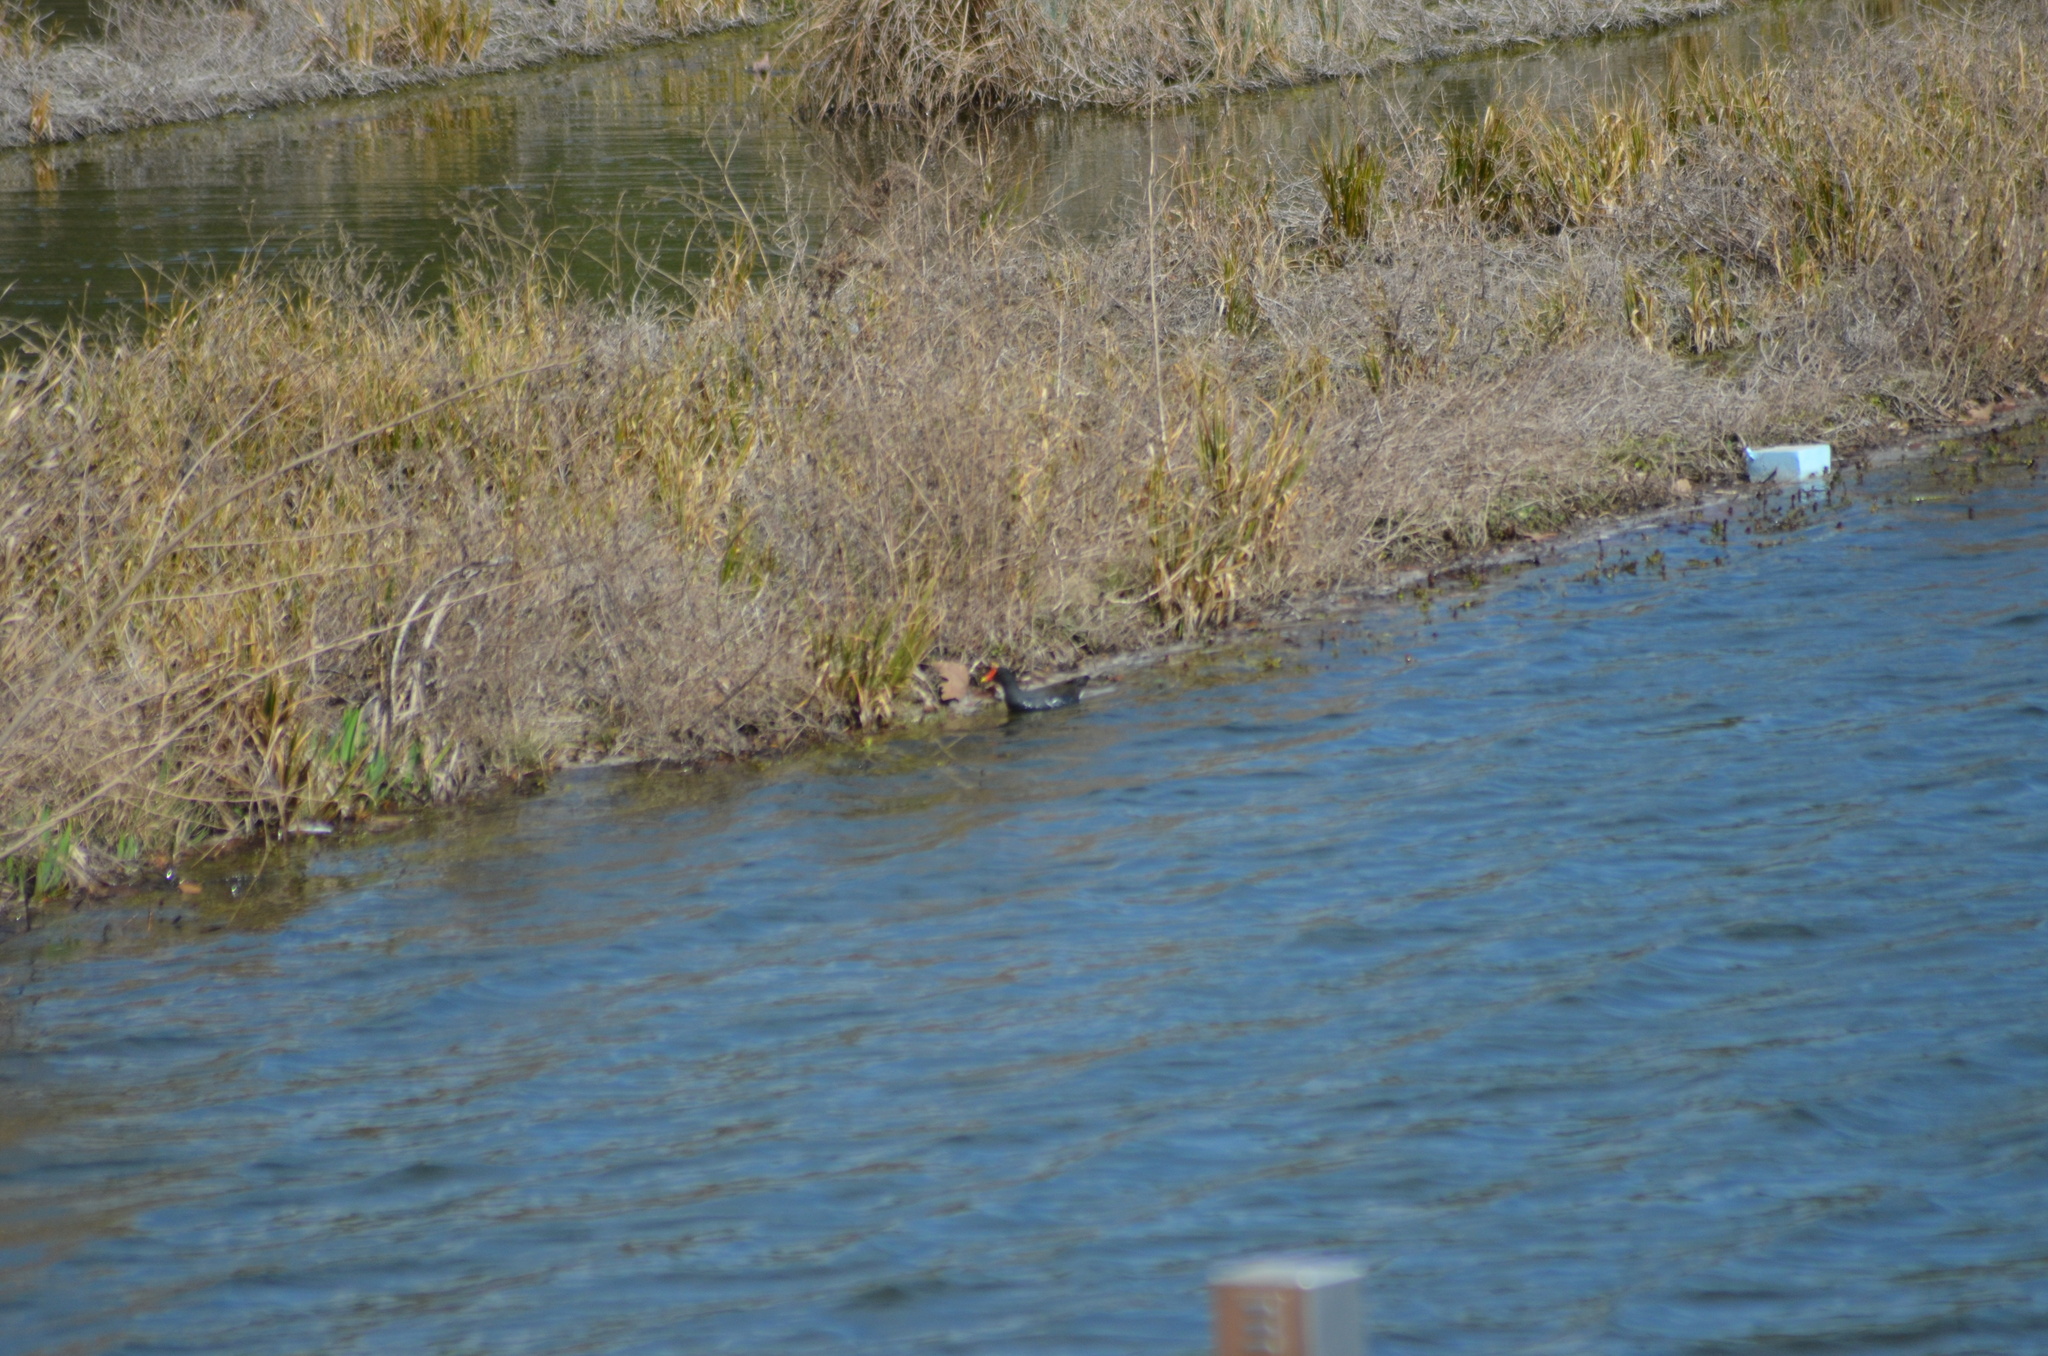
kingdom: Animalia
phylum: Chordata
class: Aves
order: Gruiformes
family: Rallidae
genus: Gallinula
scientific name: Gallinula chloropus
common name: Common moorhen
